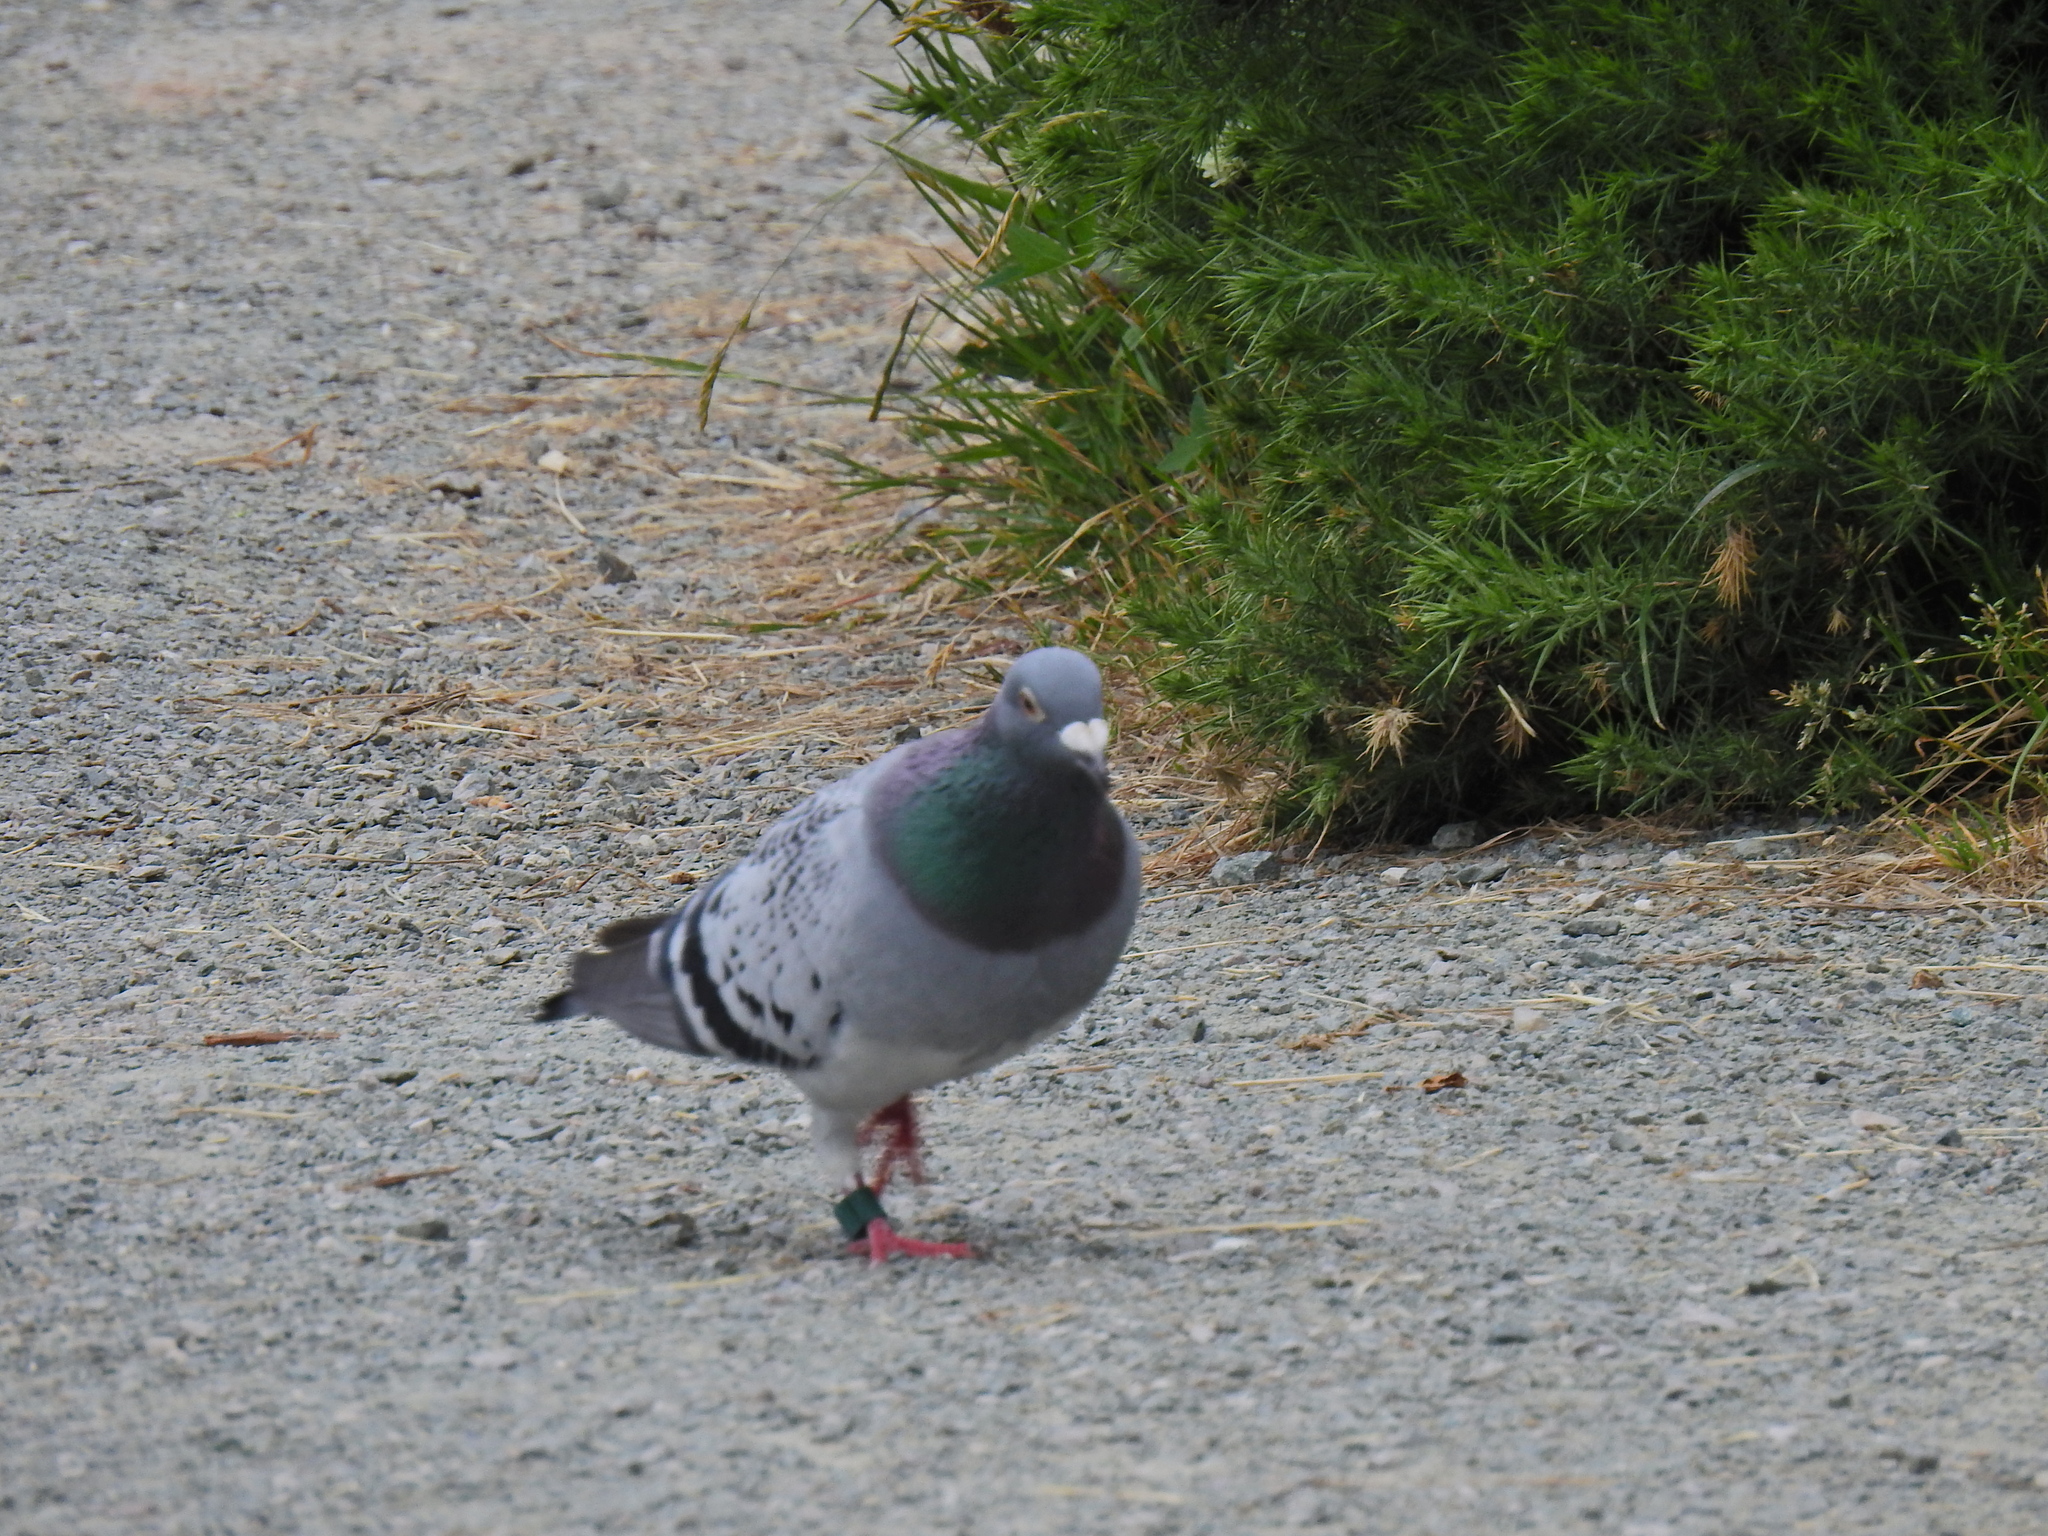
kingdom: Animalia
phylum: Chordata
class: Aves
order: Columbiformes
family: Columbidae
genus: Columba
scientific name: Columba livia
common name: Rock pigeon
